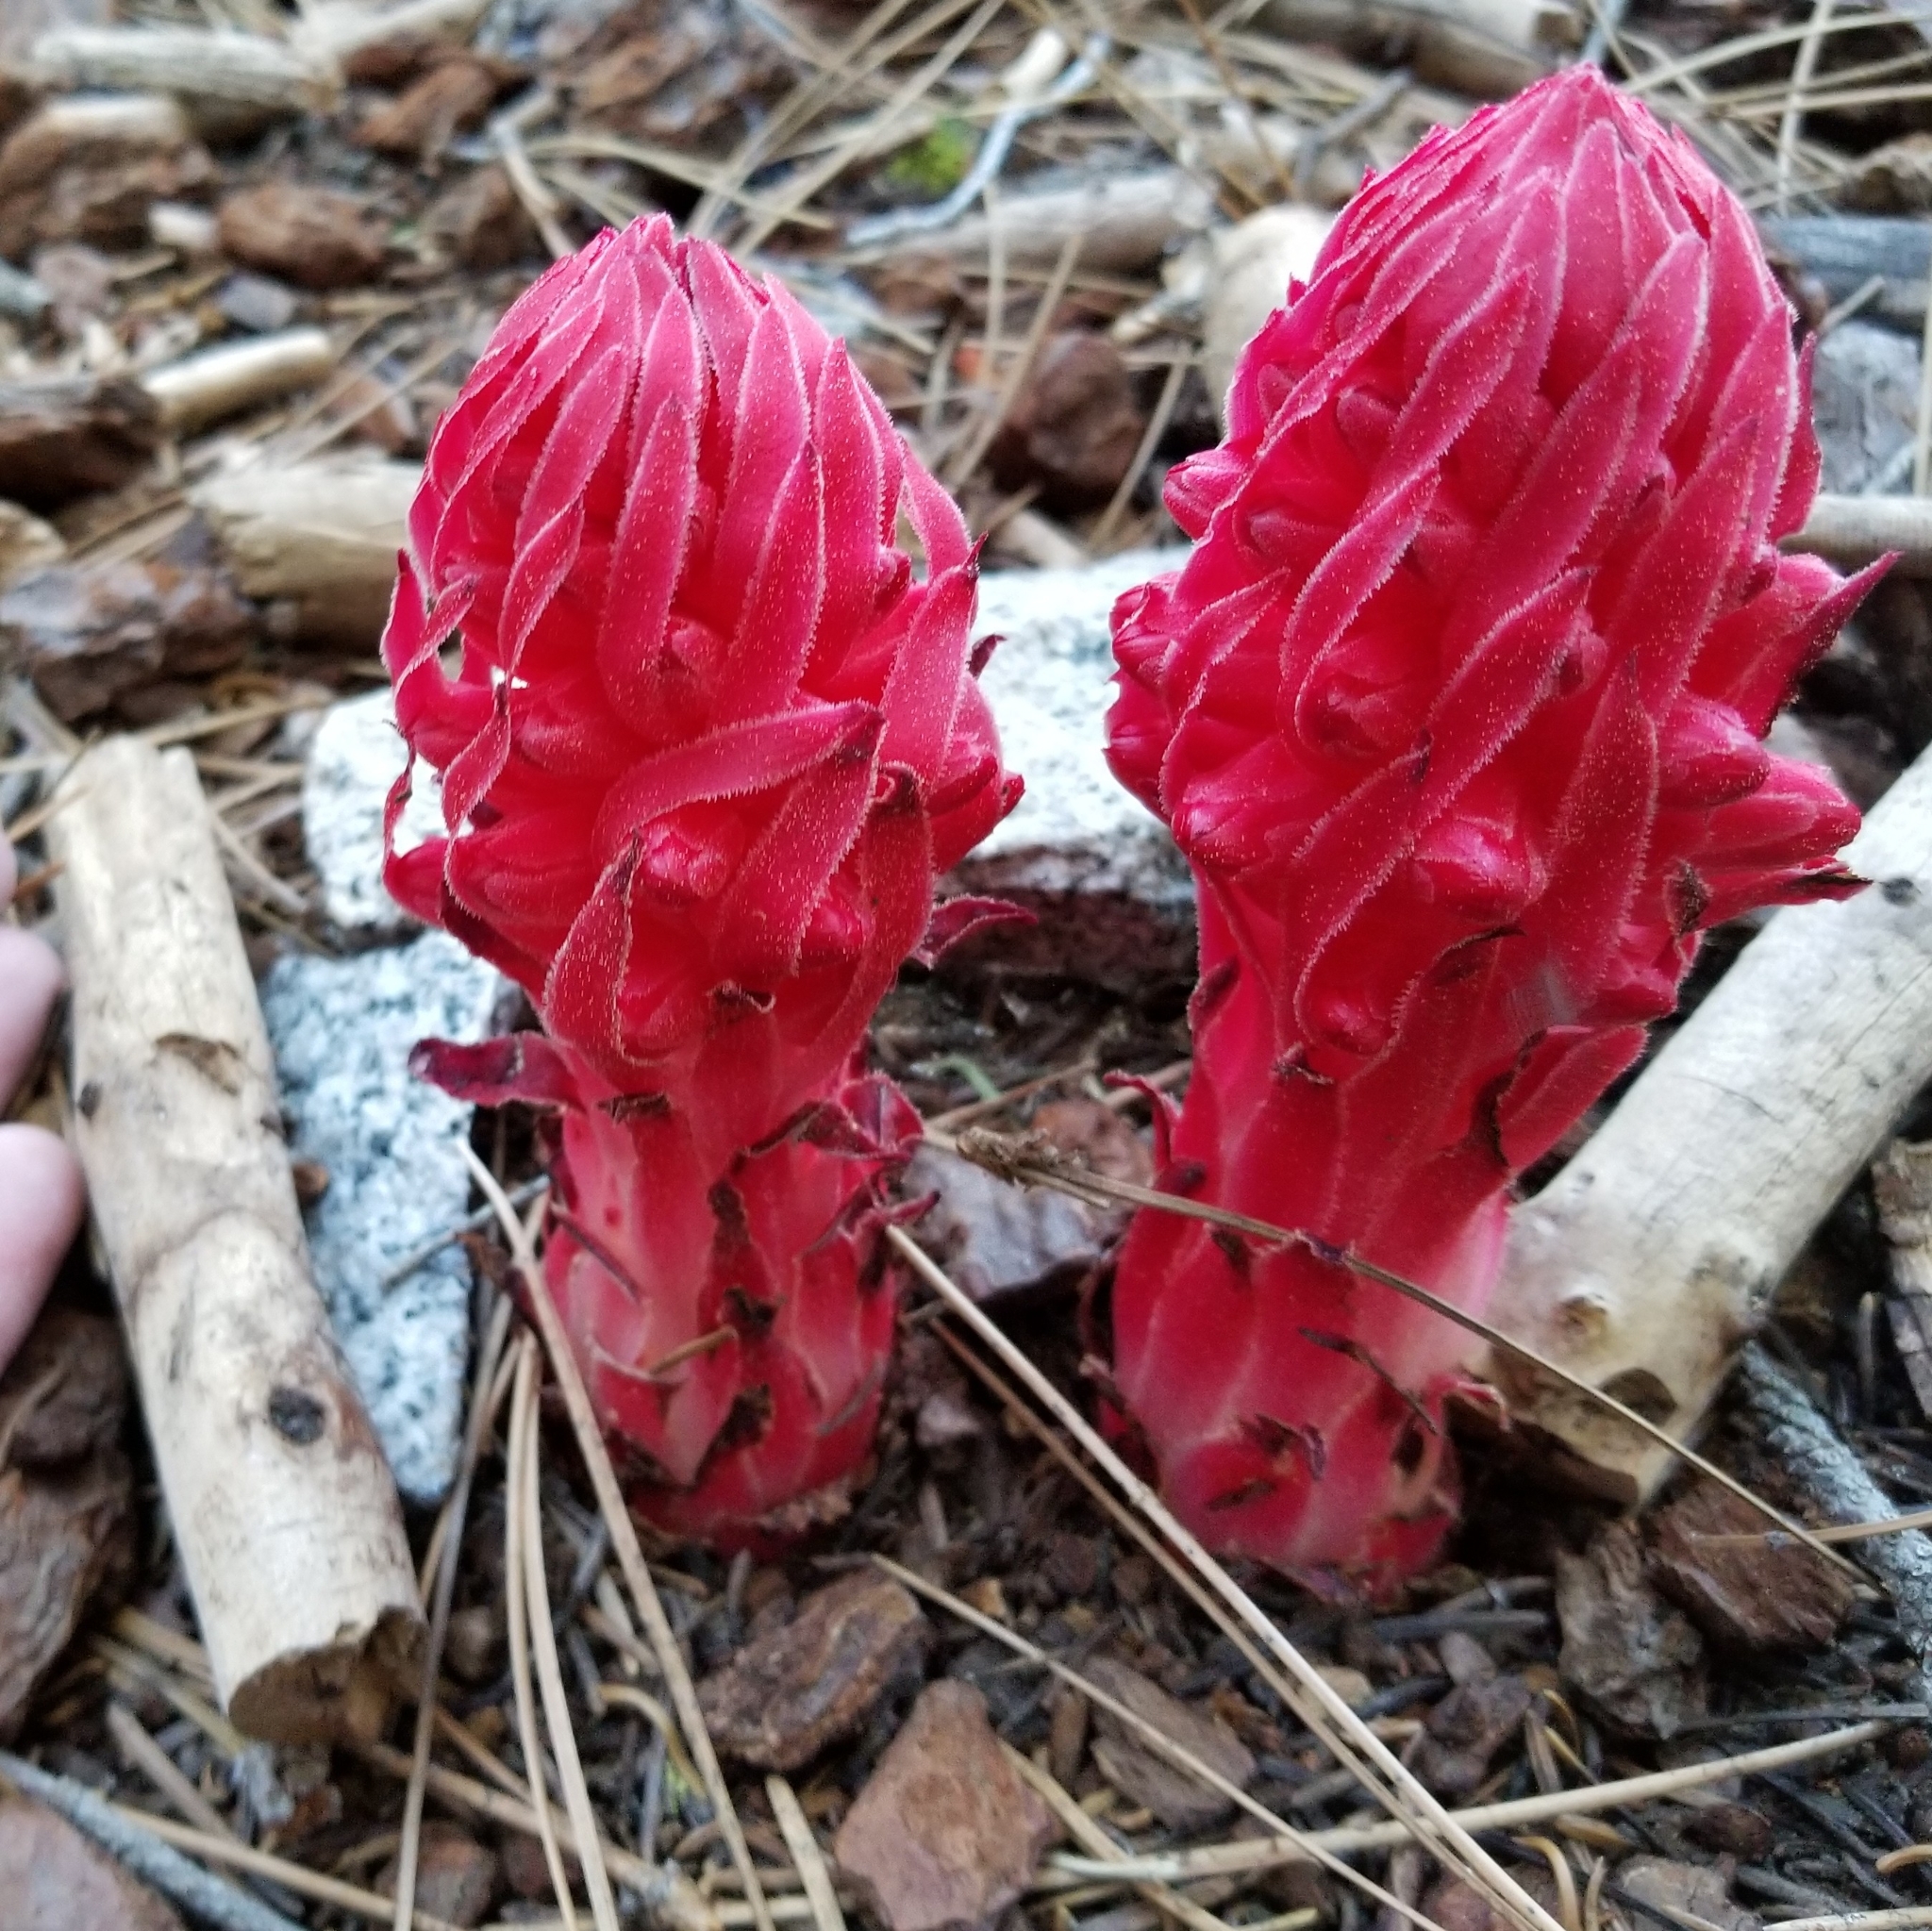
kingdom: Plantae
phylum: Tracheophyta
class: Magnoliopsida
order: Ericales
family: Ericaceae
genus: Sarcodes
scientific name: Sarcodes sanguinea
